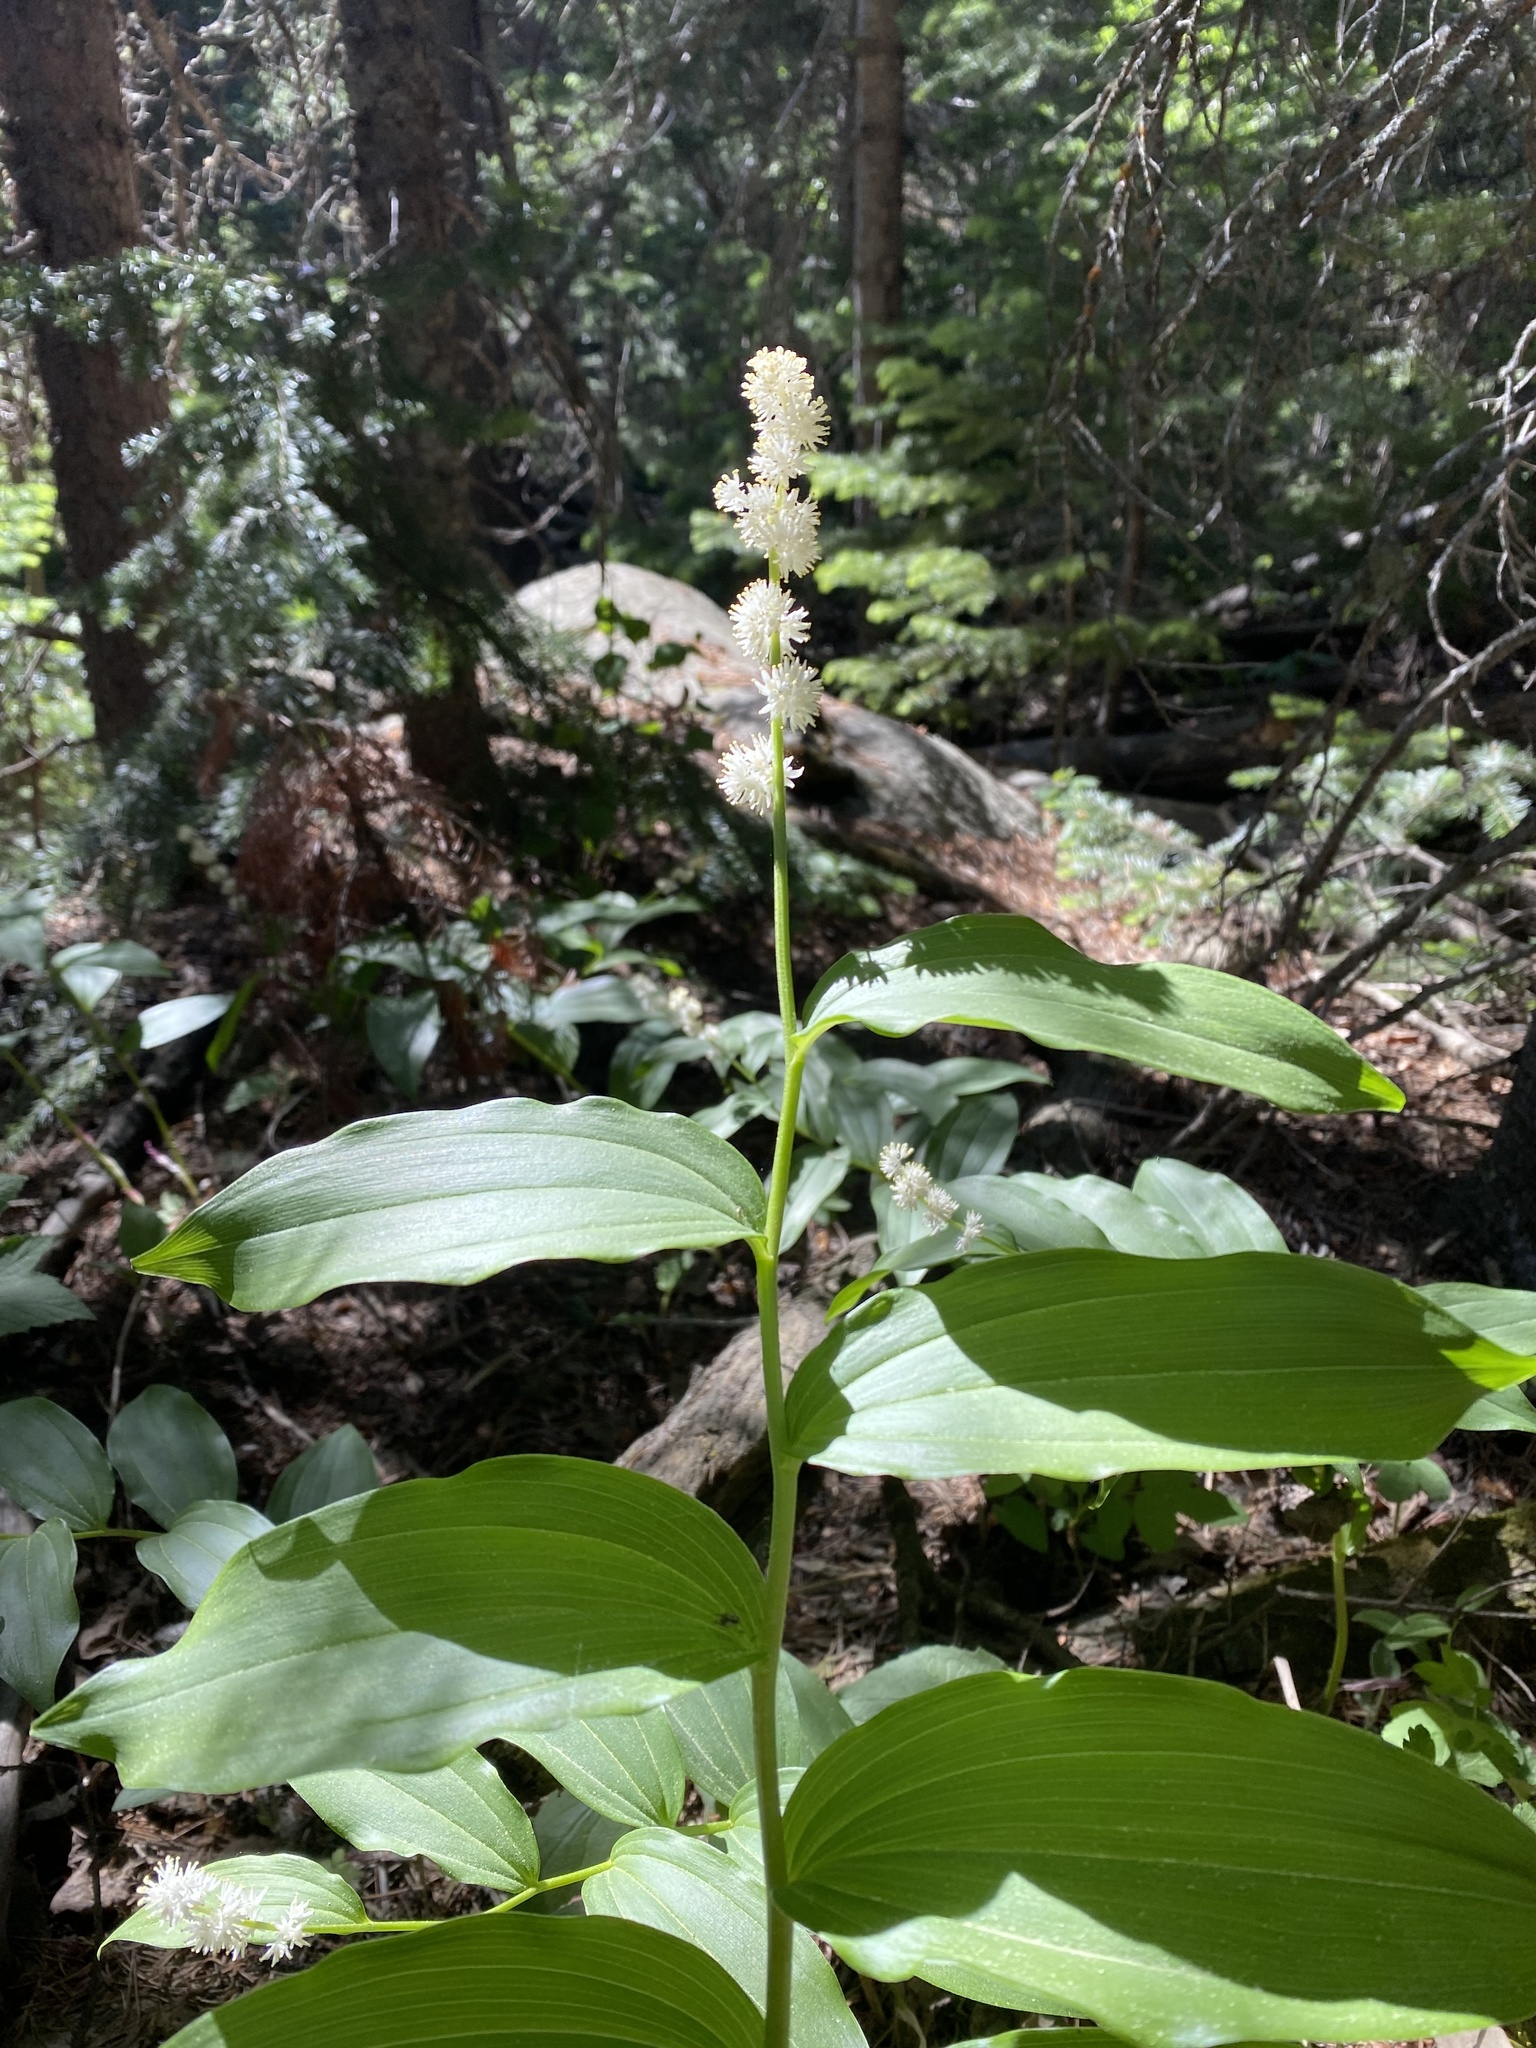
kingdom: Plantae
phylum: Tracheophyta
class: Liliopsida
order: Asparagales
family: Asparagaceae
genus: Maianthemum
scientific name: Maianthemum racemosum
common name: False spikenard
